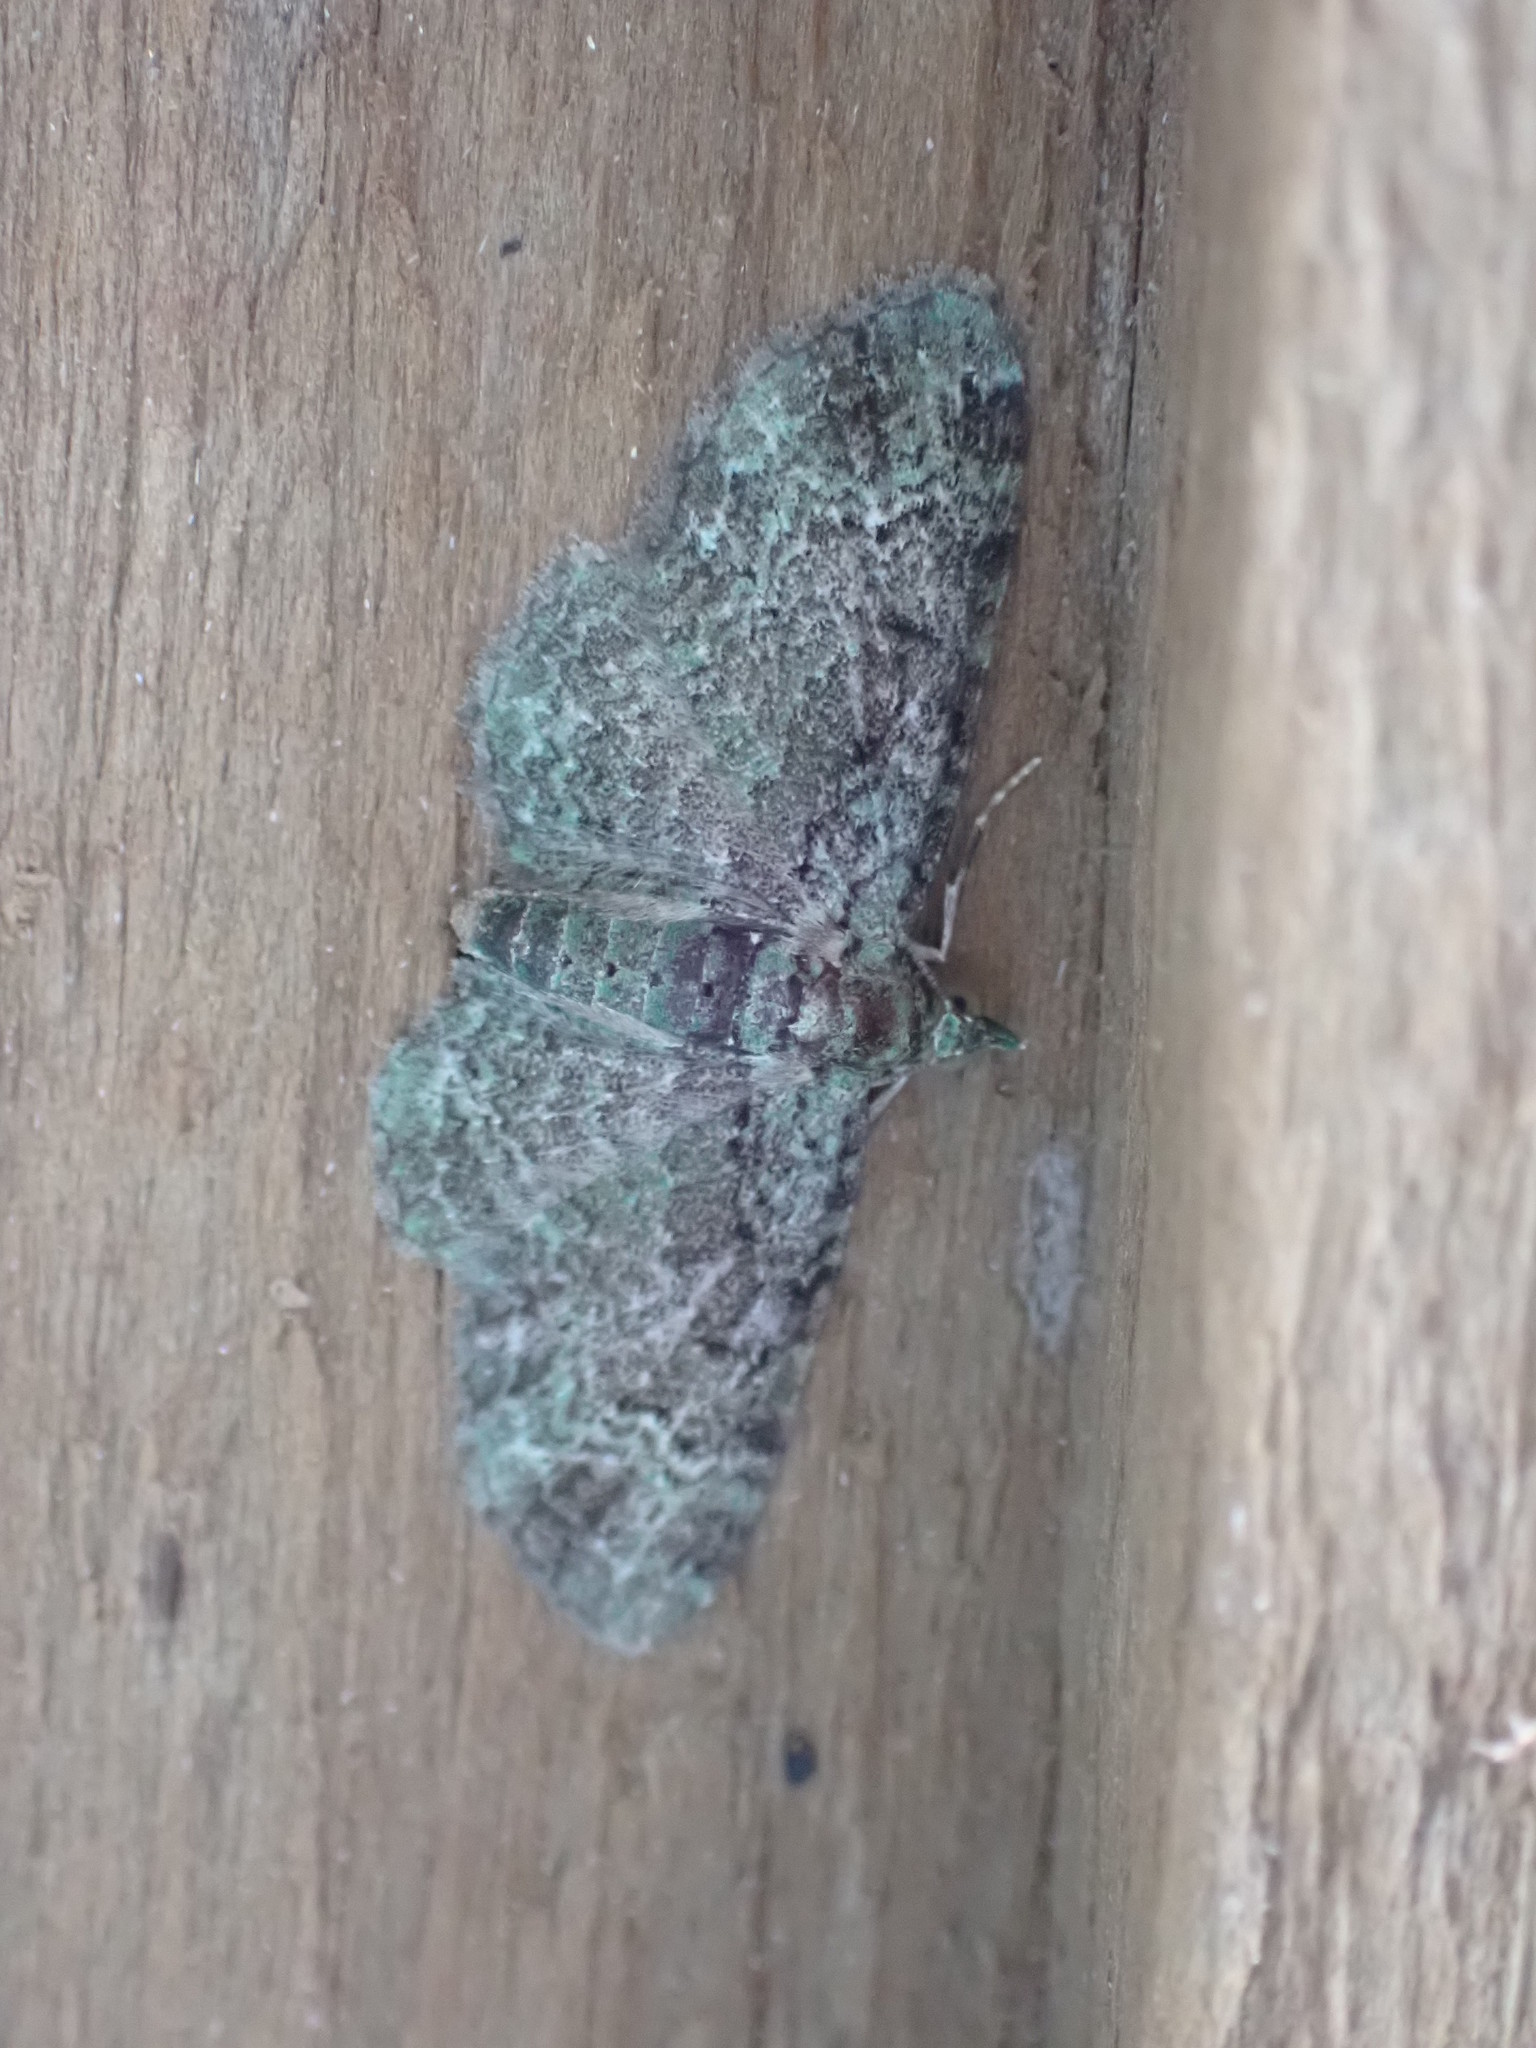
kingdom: Animalia
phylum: Arthropoda
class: Insecta
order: Lepidoptera
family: Geometridae
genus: Pasiphila
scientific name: Pasiphila rectangulata
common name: Green pug
